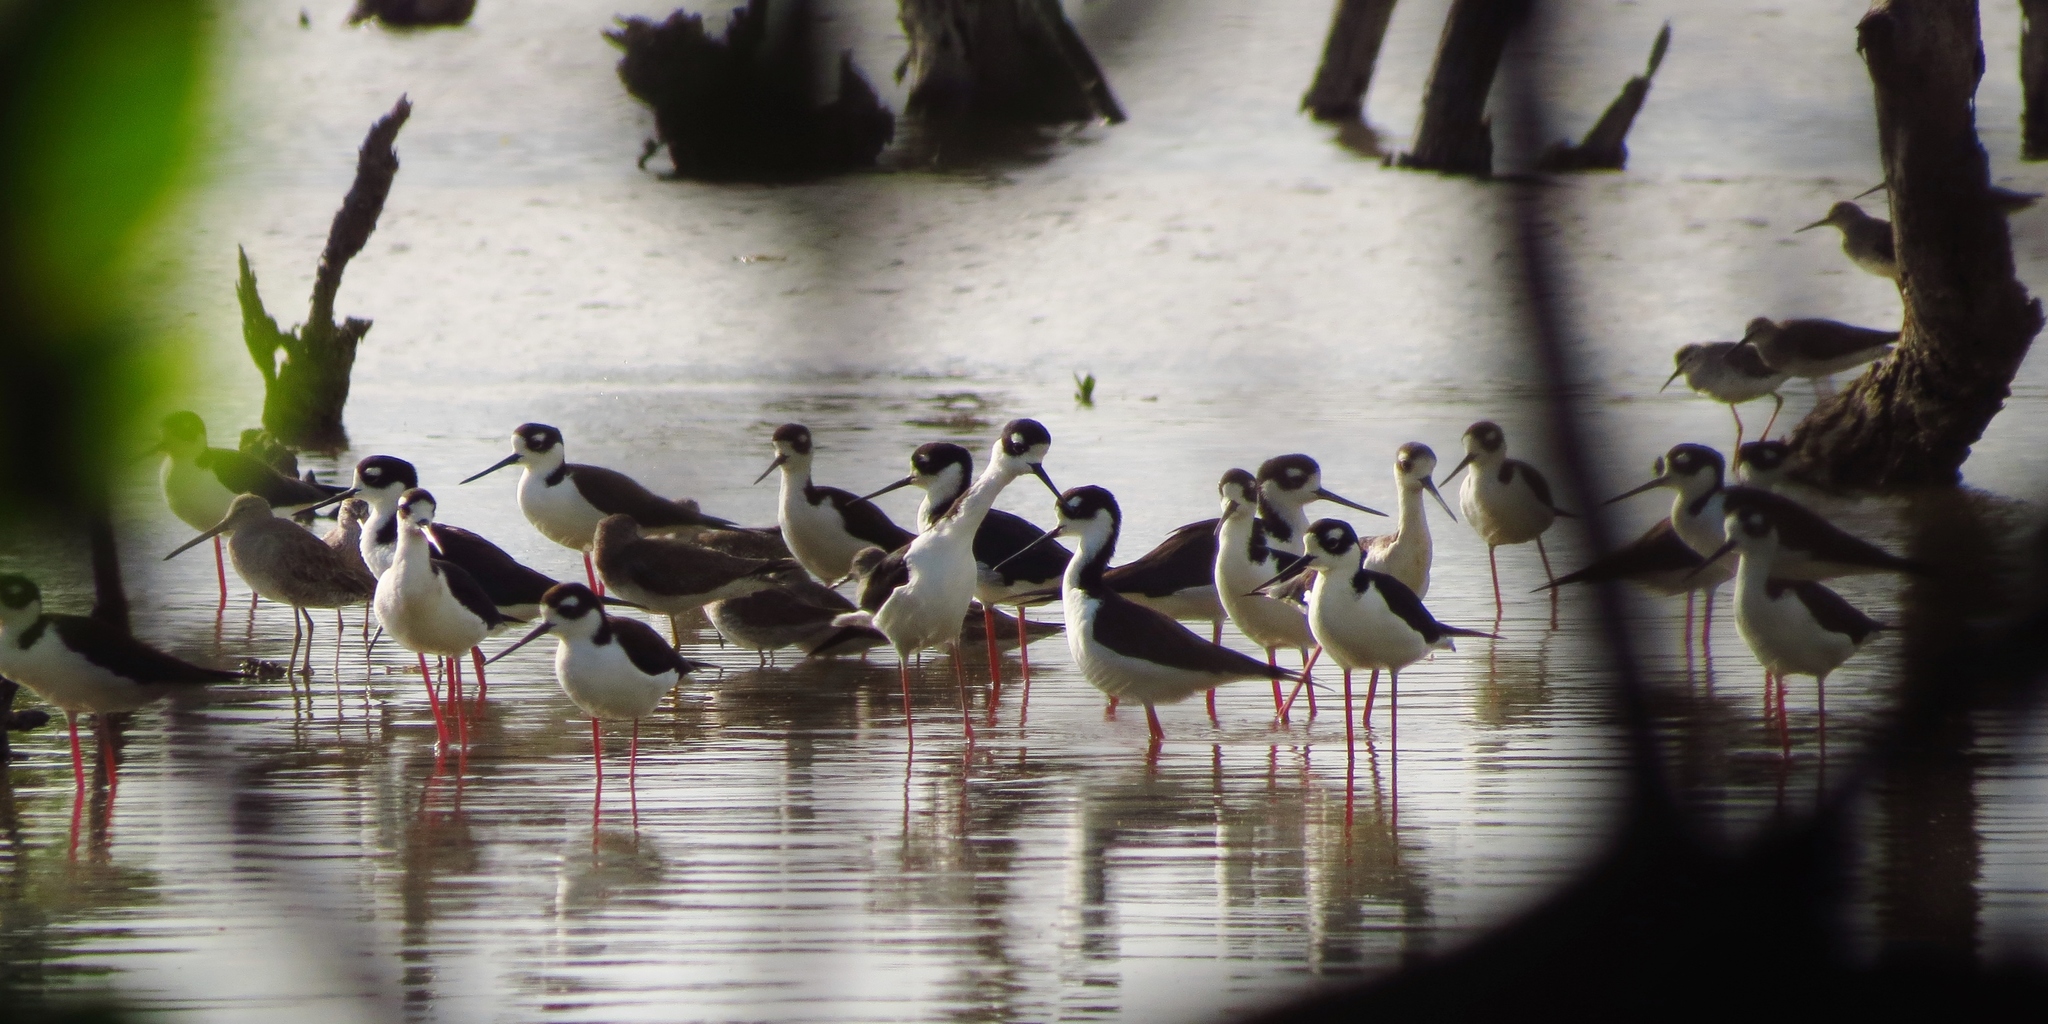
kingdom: Animalia
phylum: Chordata
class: Aves
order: Charadriiformes
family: Recurvirostridae
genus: Himantopus
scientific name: Himantopus mexicanus
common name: Black-necked stilt
